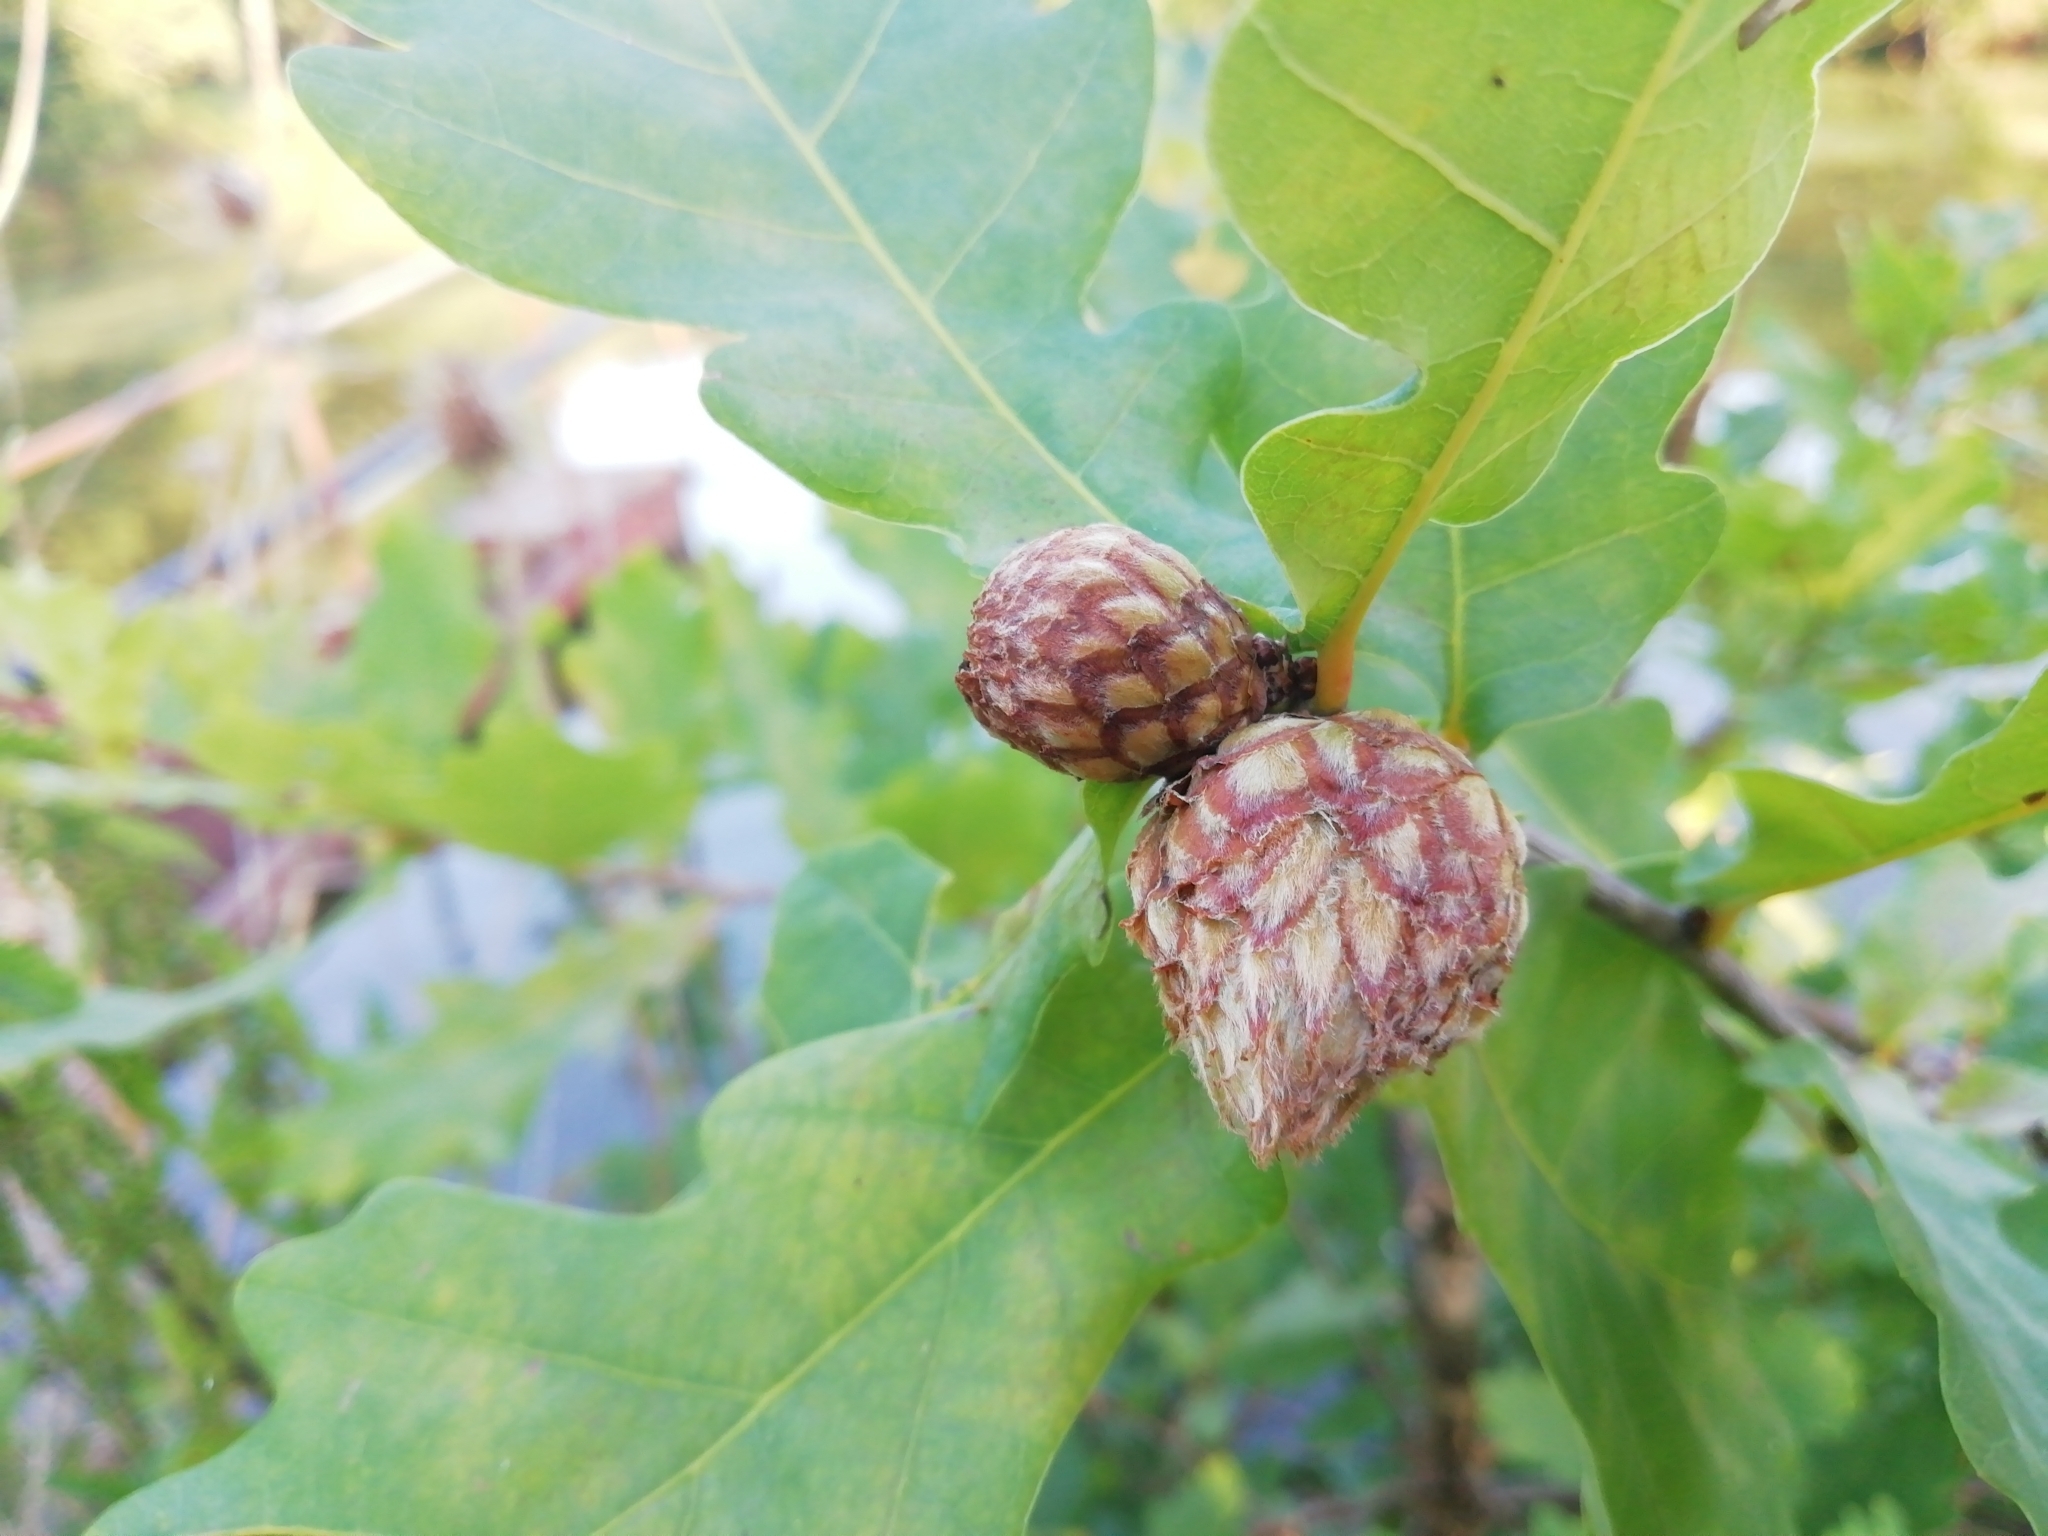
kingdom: Animalia
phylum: Arthropoda
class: Insecta
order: Hymenoptera
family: Cynipidae
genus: Andricus
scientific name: Andricus foecundatrix
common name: Artichoke gall
